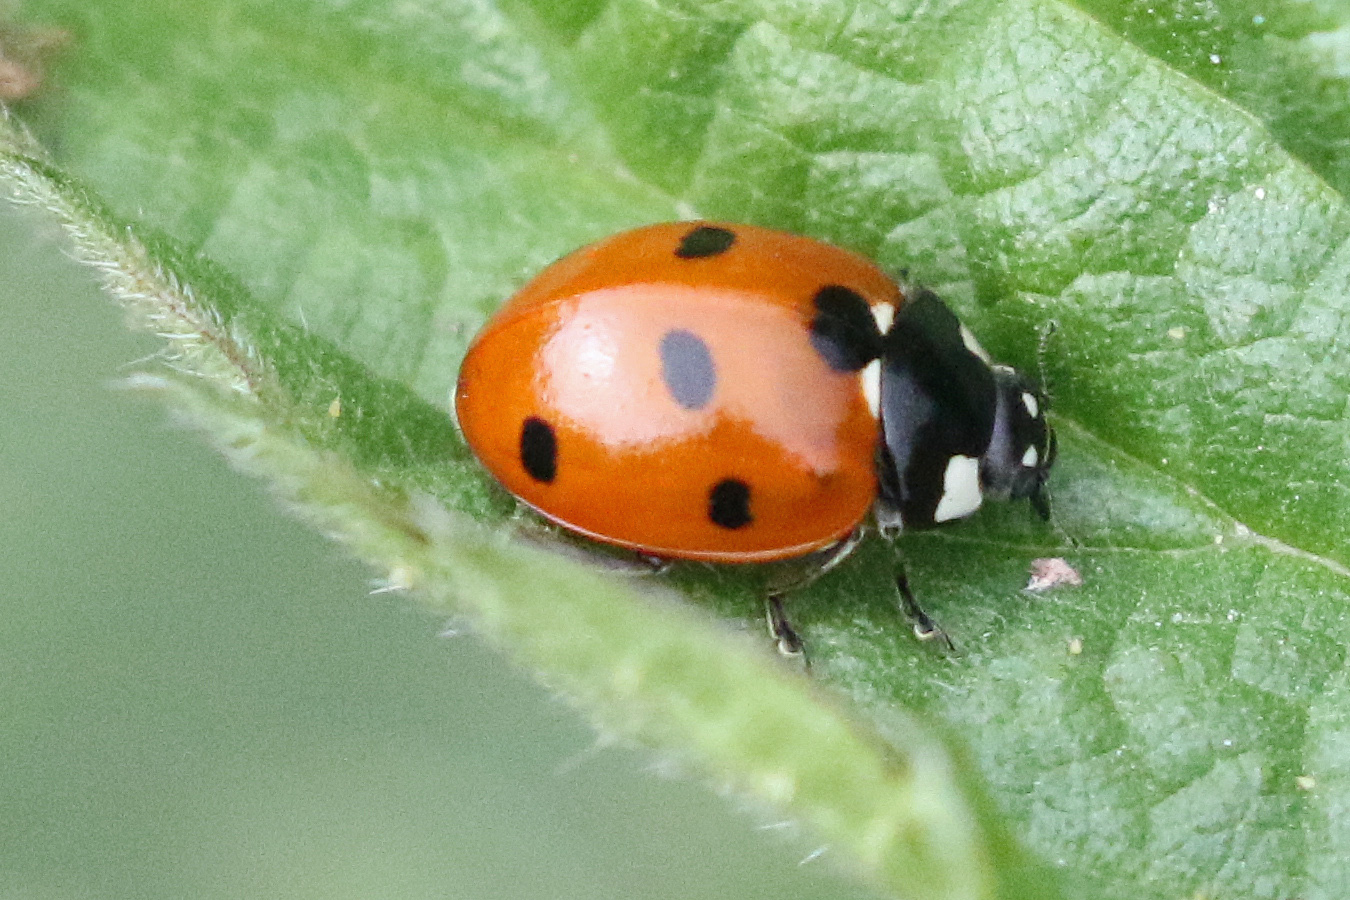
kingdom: Animalia
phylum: Arthropoda
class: Insecta
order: Coleoptera
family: Coccinellidae
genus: Coccinella
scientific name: Coccinella septempunctata
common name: Sevenspotted lady beetle
